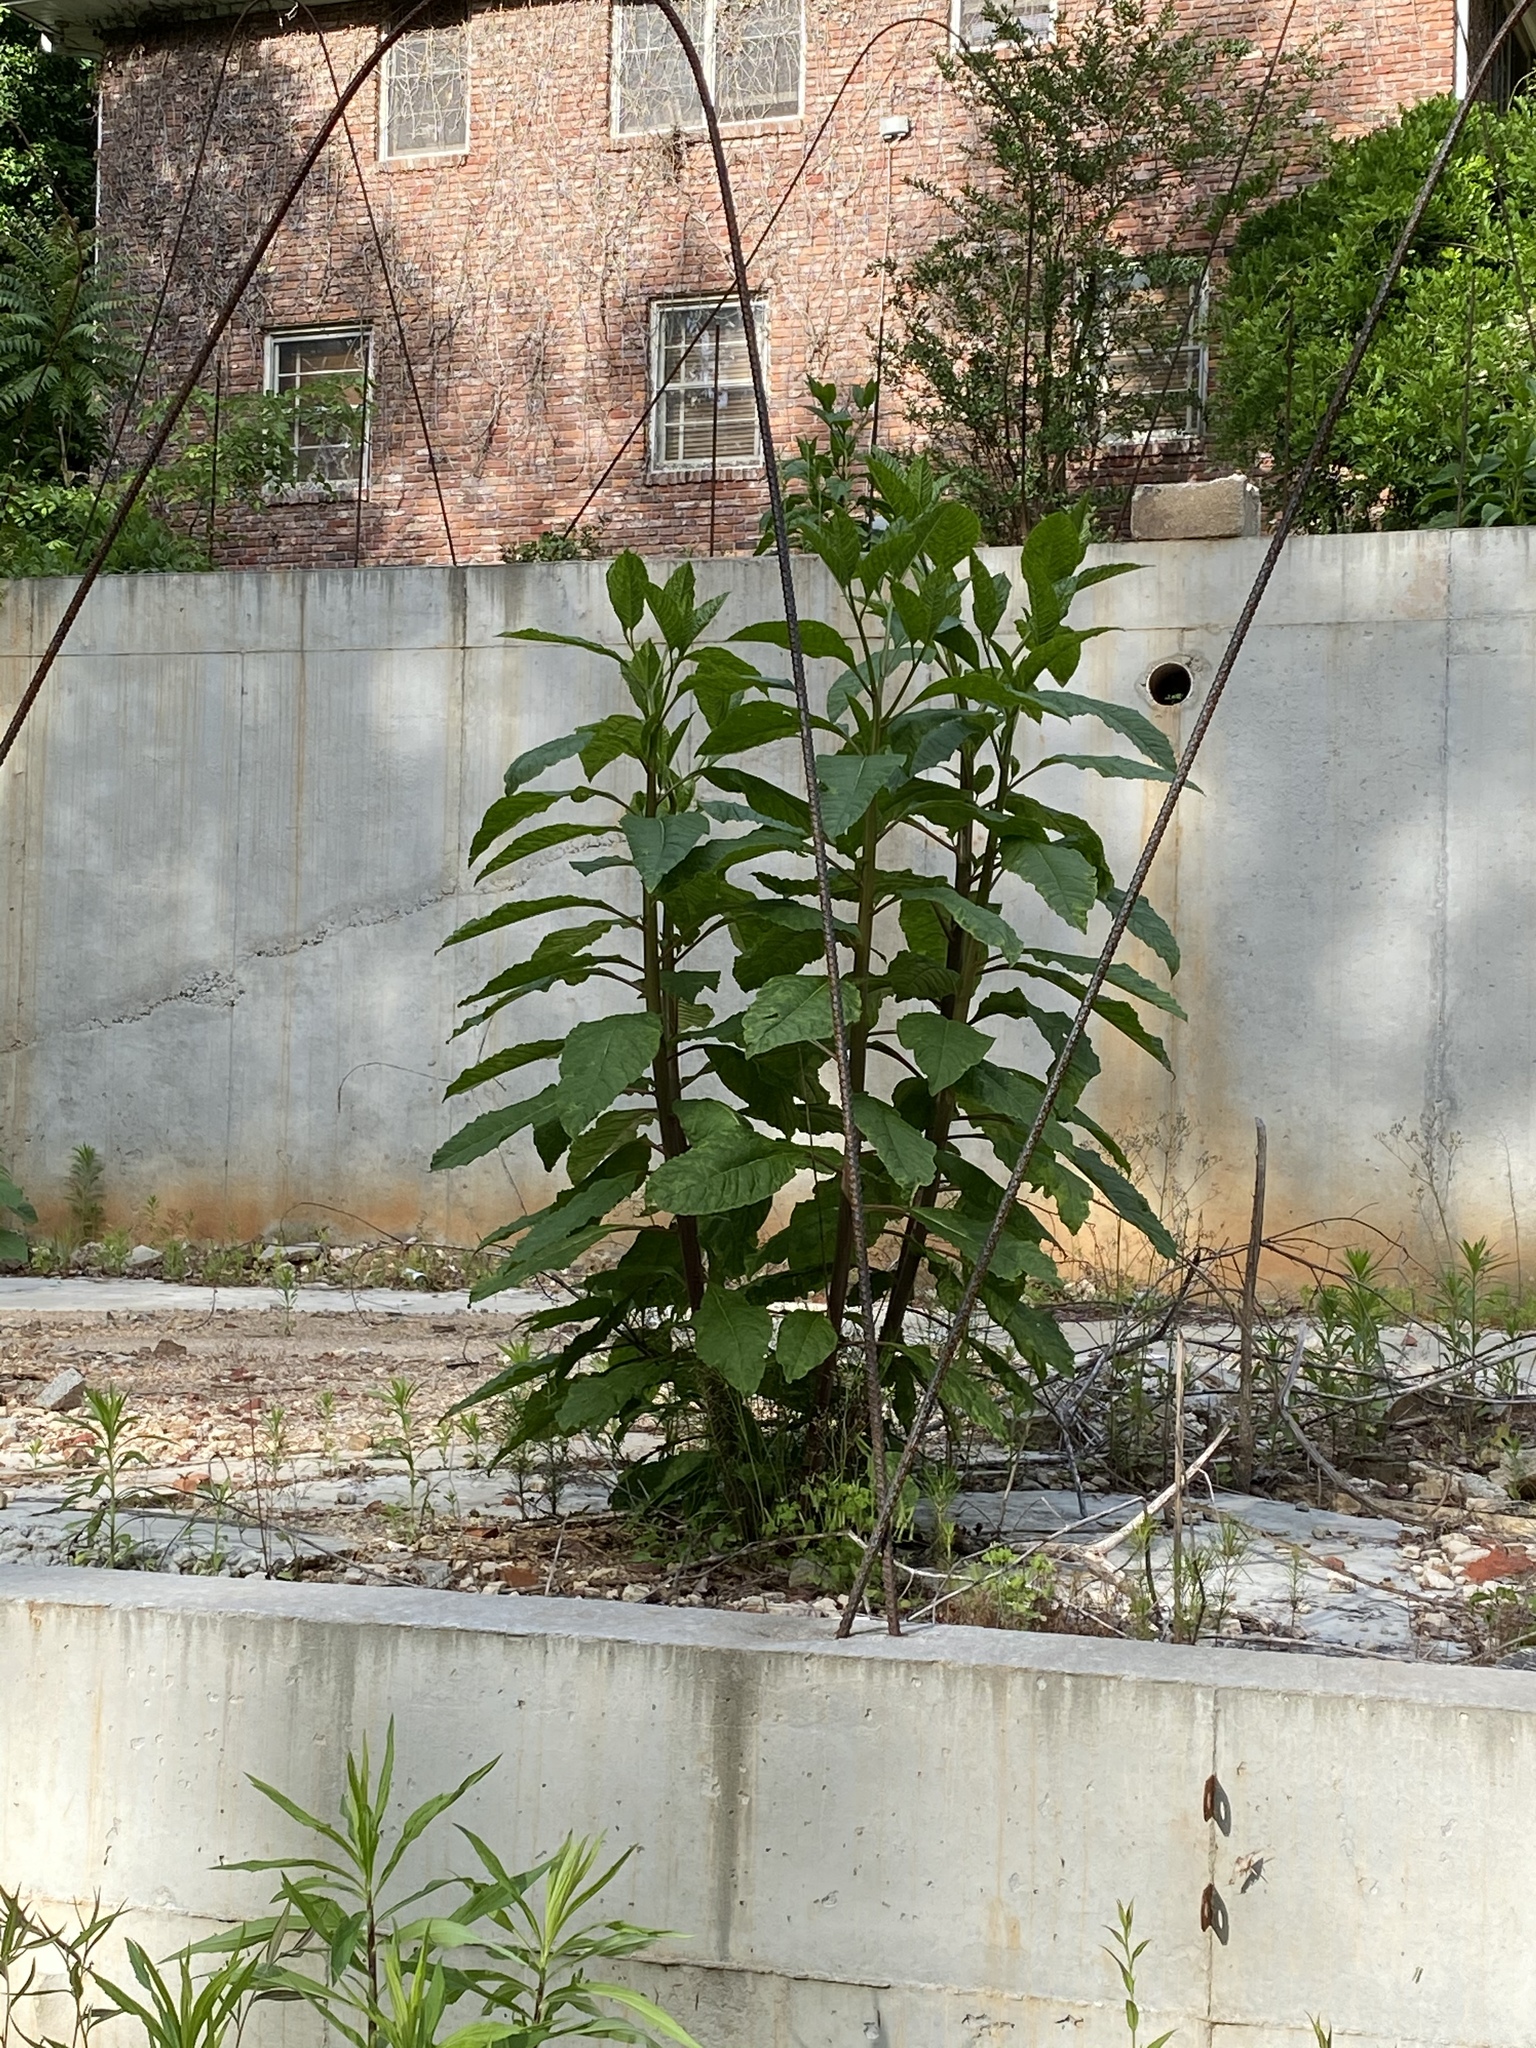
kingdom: Plantae
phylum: Tracheophyta
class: Magnoliopsida
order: Caryophyllales
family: Phytolaccaceae
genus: Phytolacca
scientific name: Phytolacca americana
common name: American pokeweed
